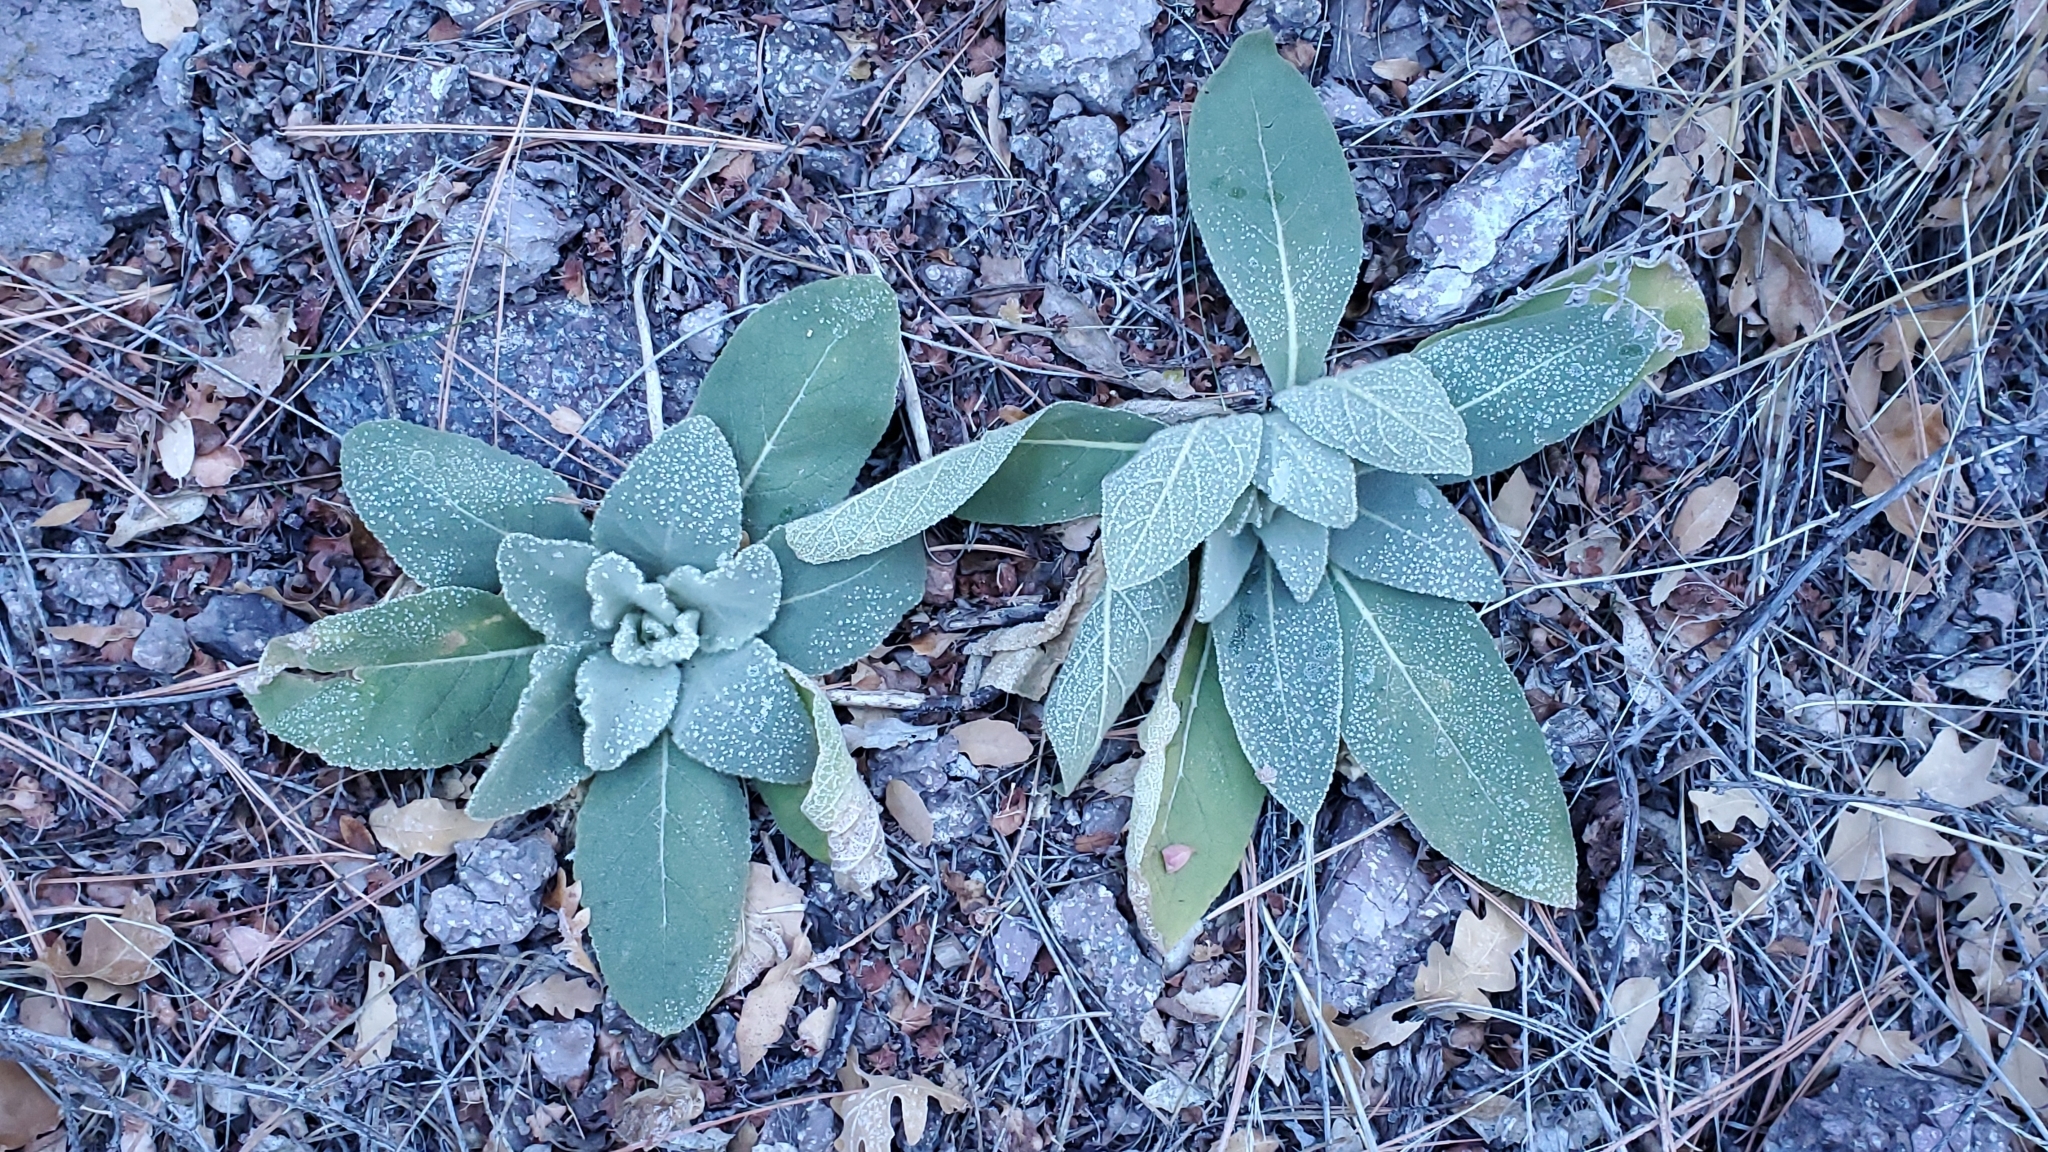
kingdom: Plantae
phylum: Tracheophyta
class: Magnoliopsida
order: Lamiales
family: Scrophulariaceae
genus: Verbascum
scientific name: Verbascum thapsus
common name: Common mullein
